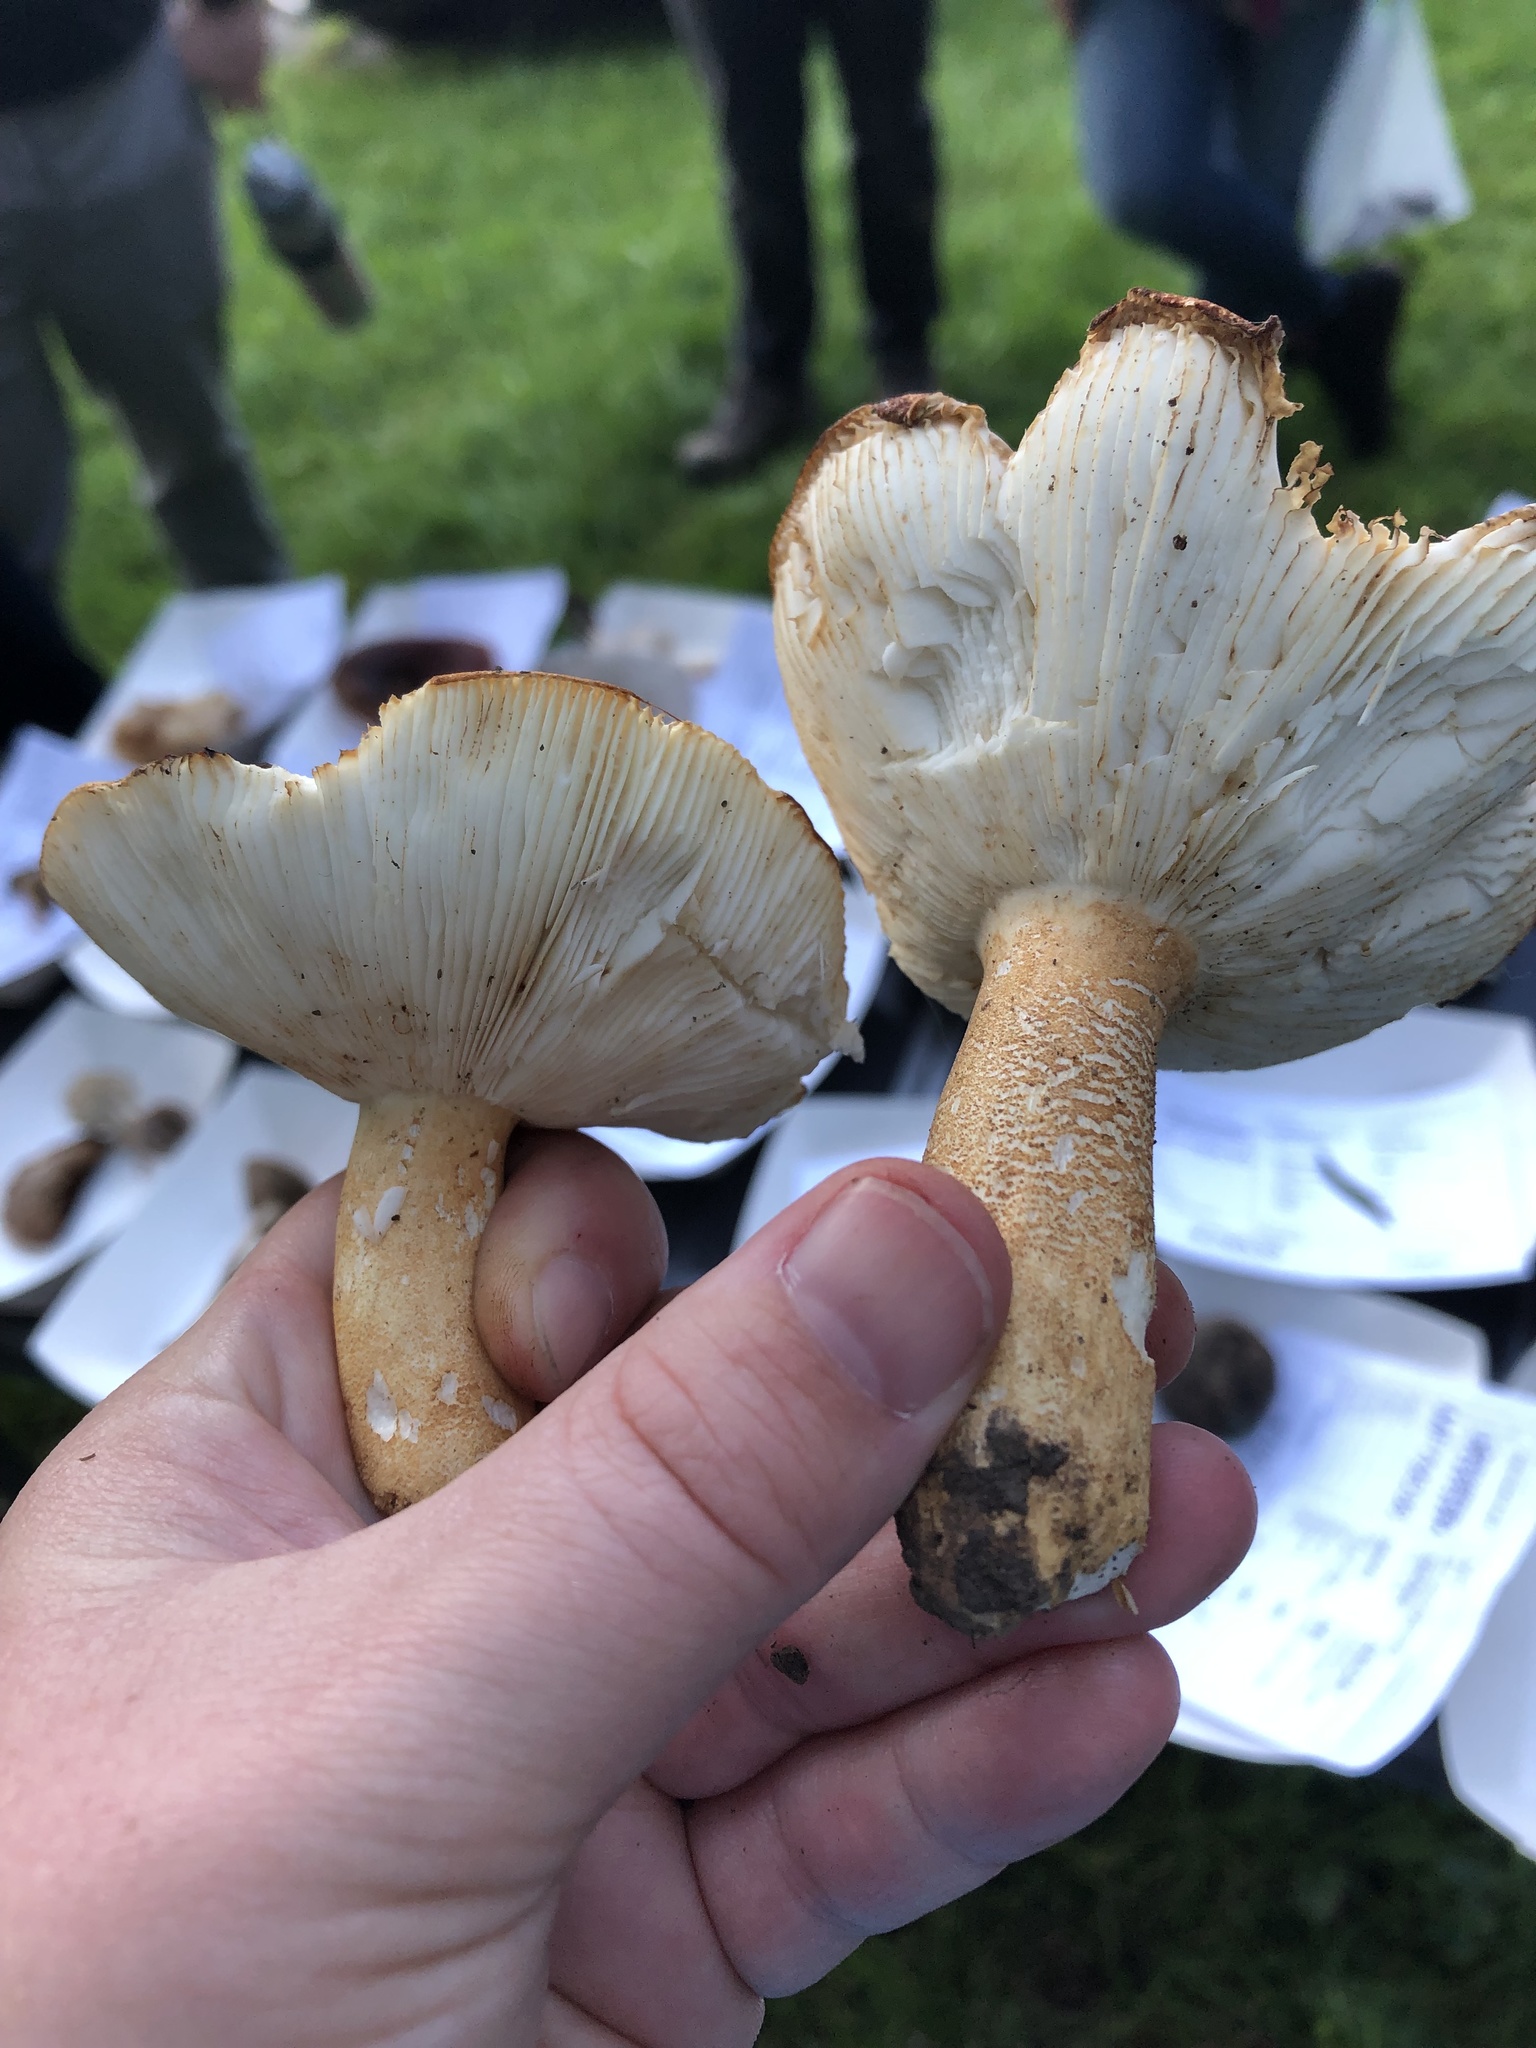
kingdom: Fungi
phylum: Basidiomycota
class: Agaricomycetes
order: Russulales
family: Russulaceae
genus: Russula
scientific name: Russula ballouii
